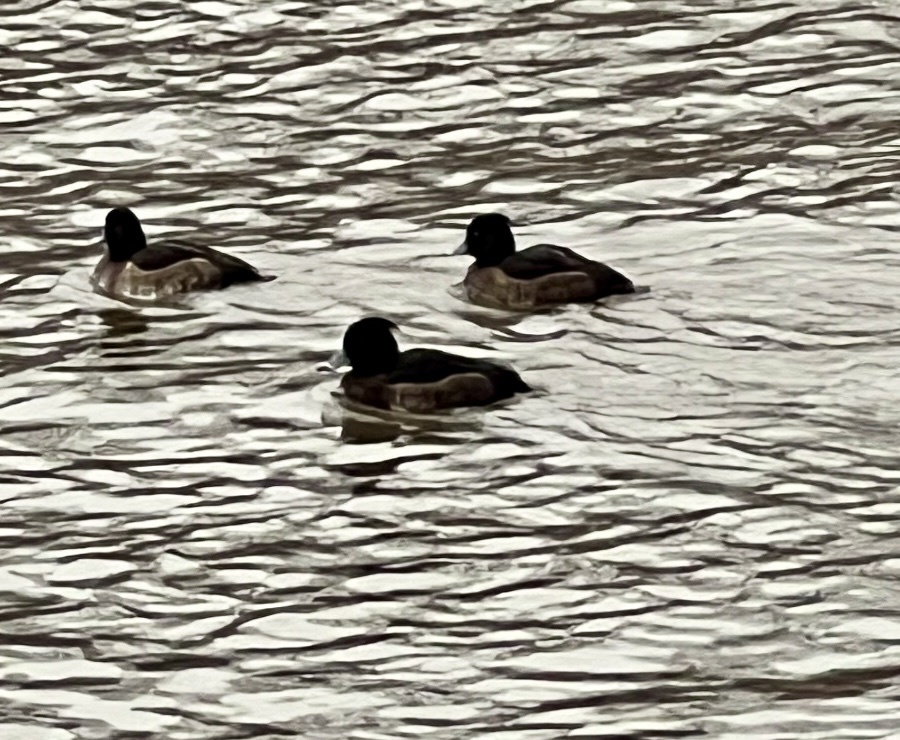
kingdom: Animalia
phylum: Chordata
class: Aves
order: Anseriformes
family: Anatidae
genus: Aythya
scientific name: Aythya fuligula
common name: Tufted duck
